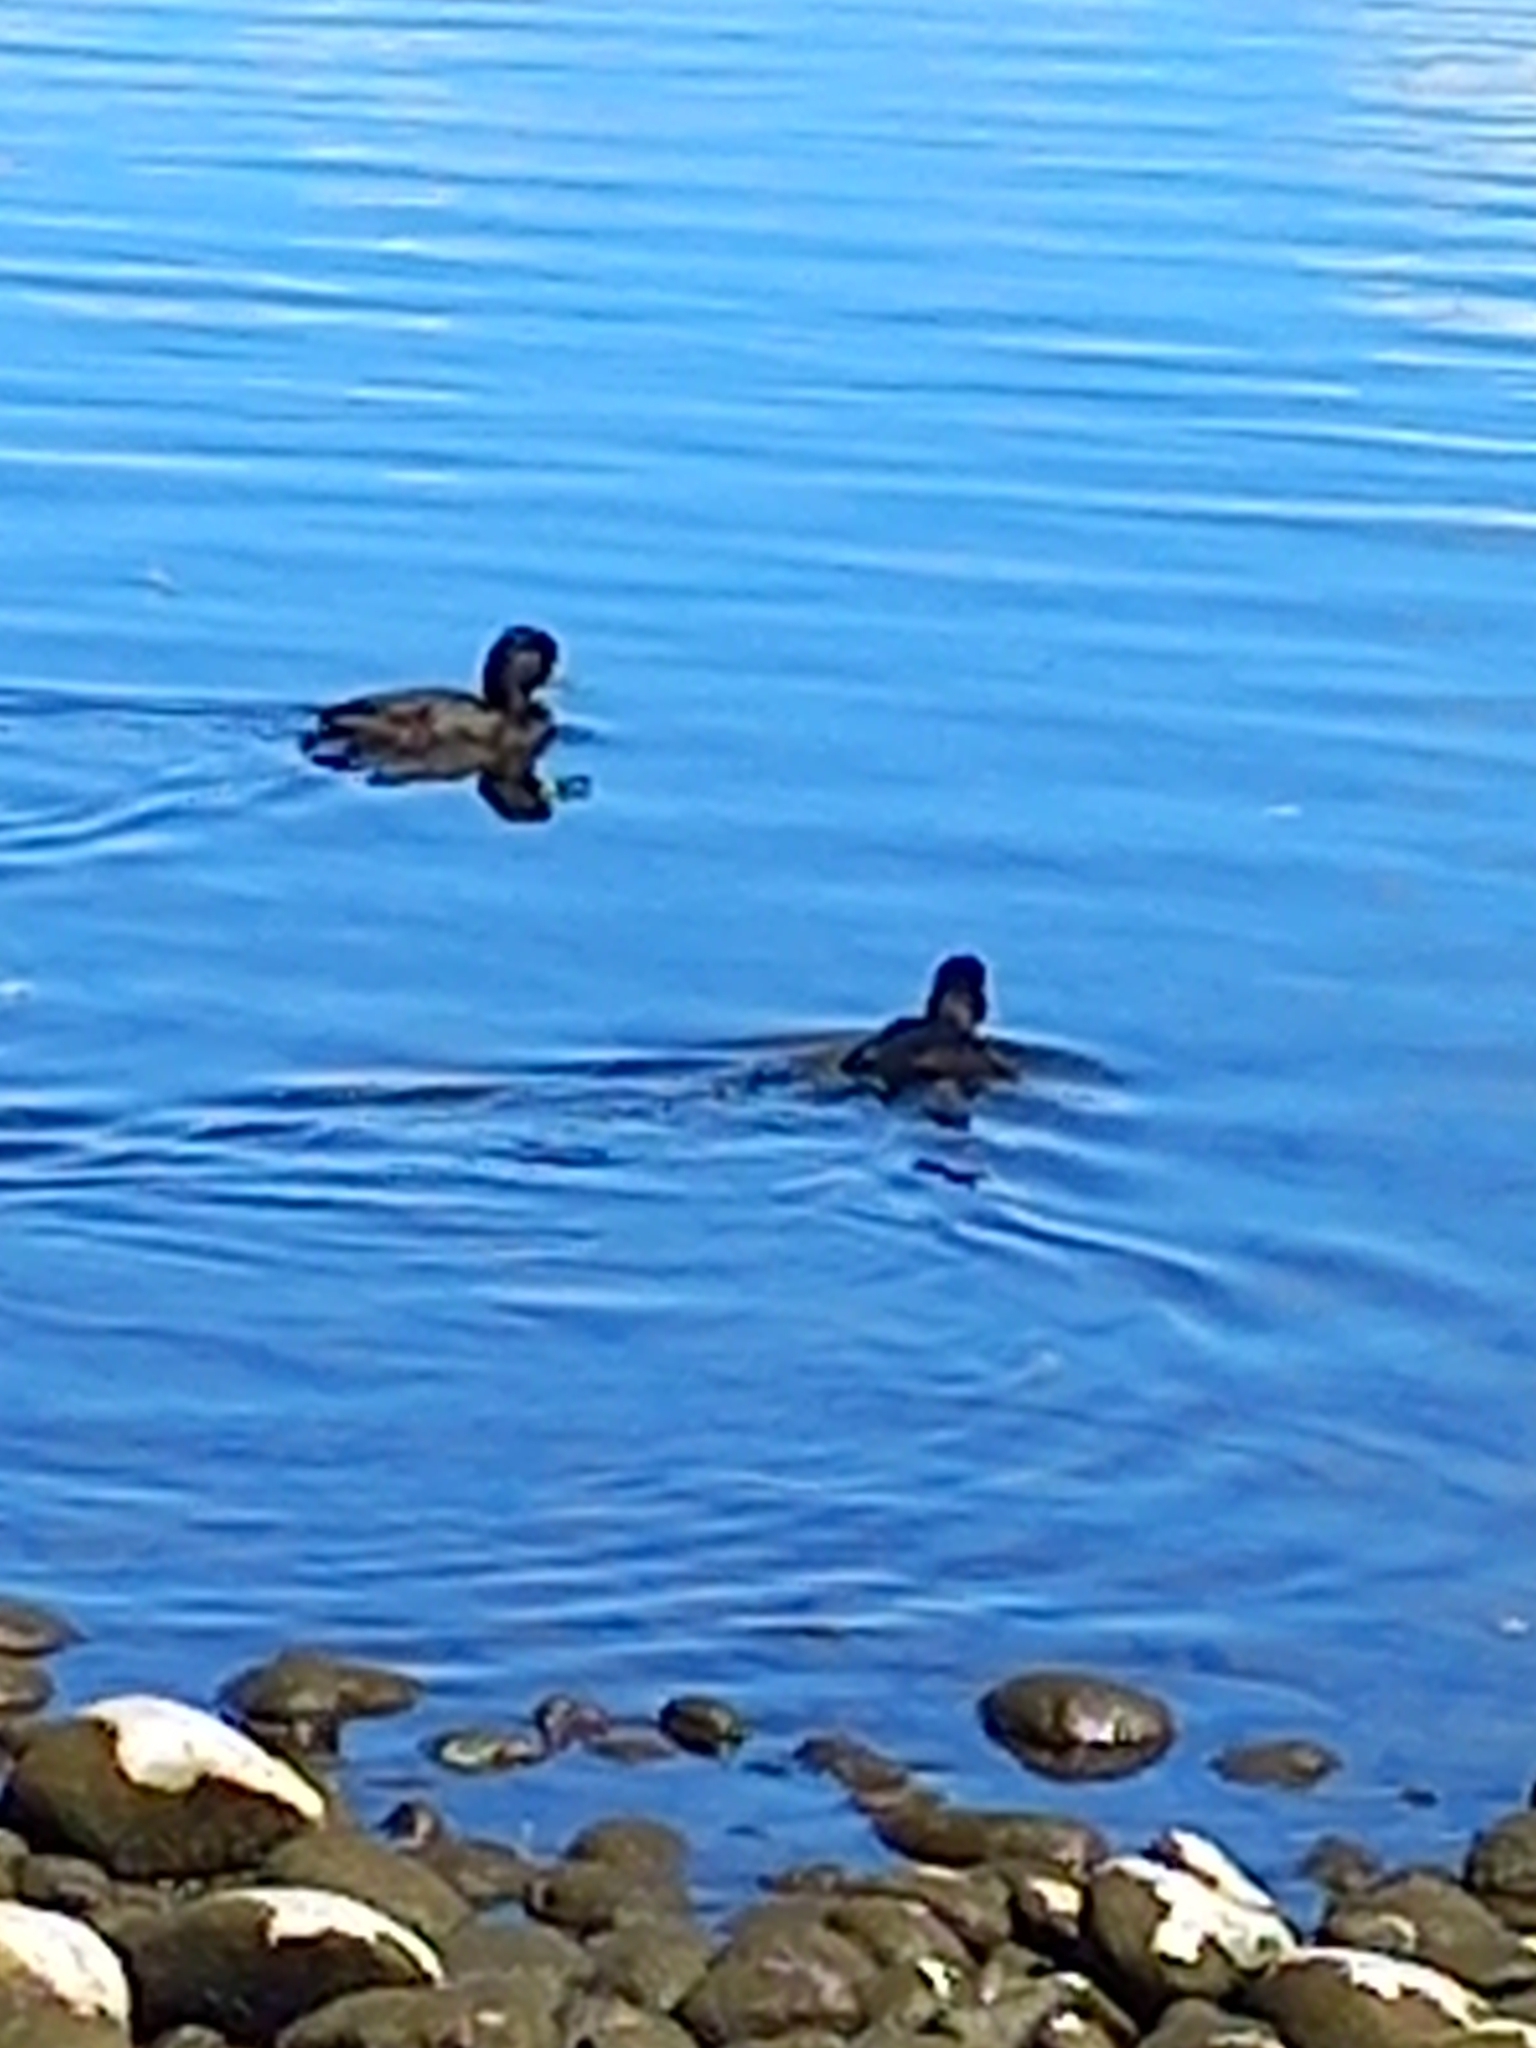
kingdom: Animalia
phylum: Chordata
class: Aves
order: Anseriformes
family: Anatidae
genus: Aythya
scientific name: Aythya novaeseelandiae
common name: New zealand scaup
